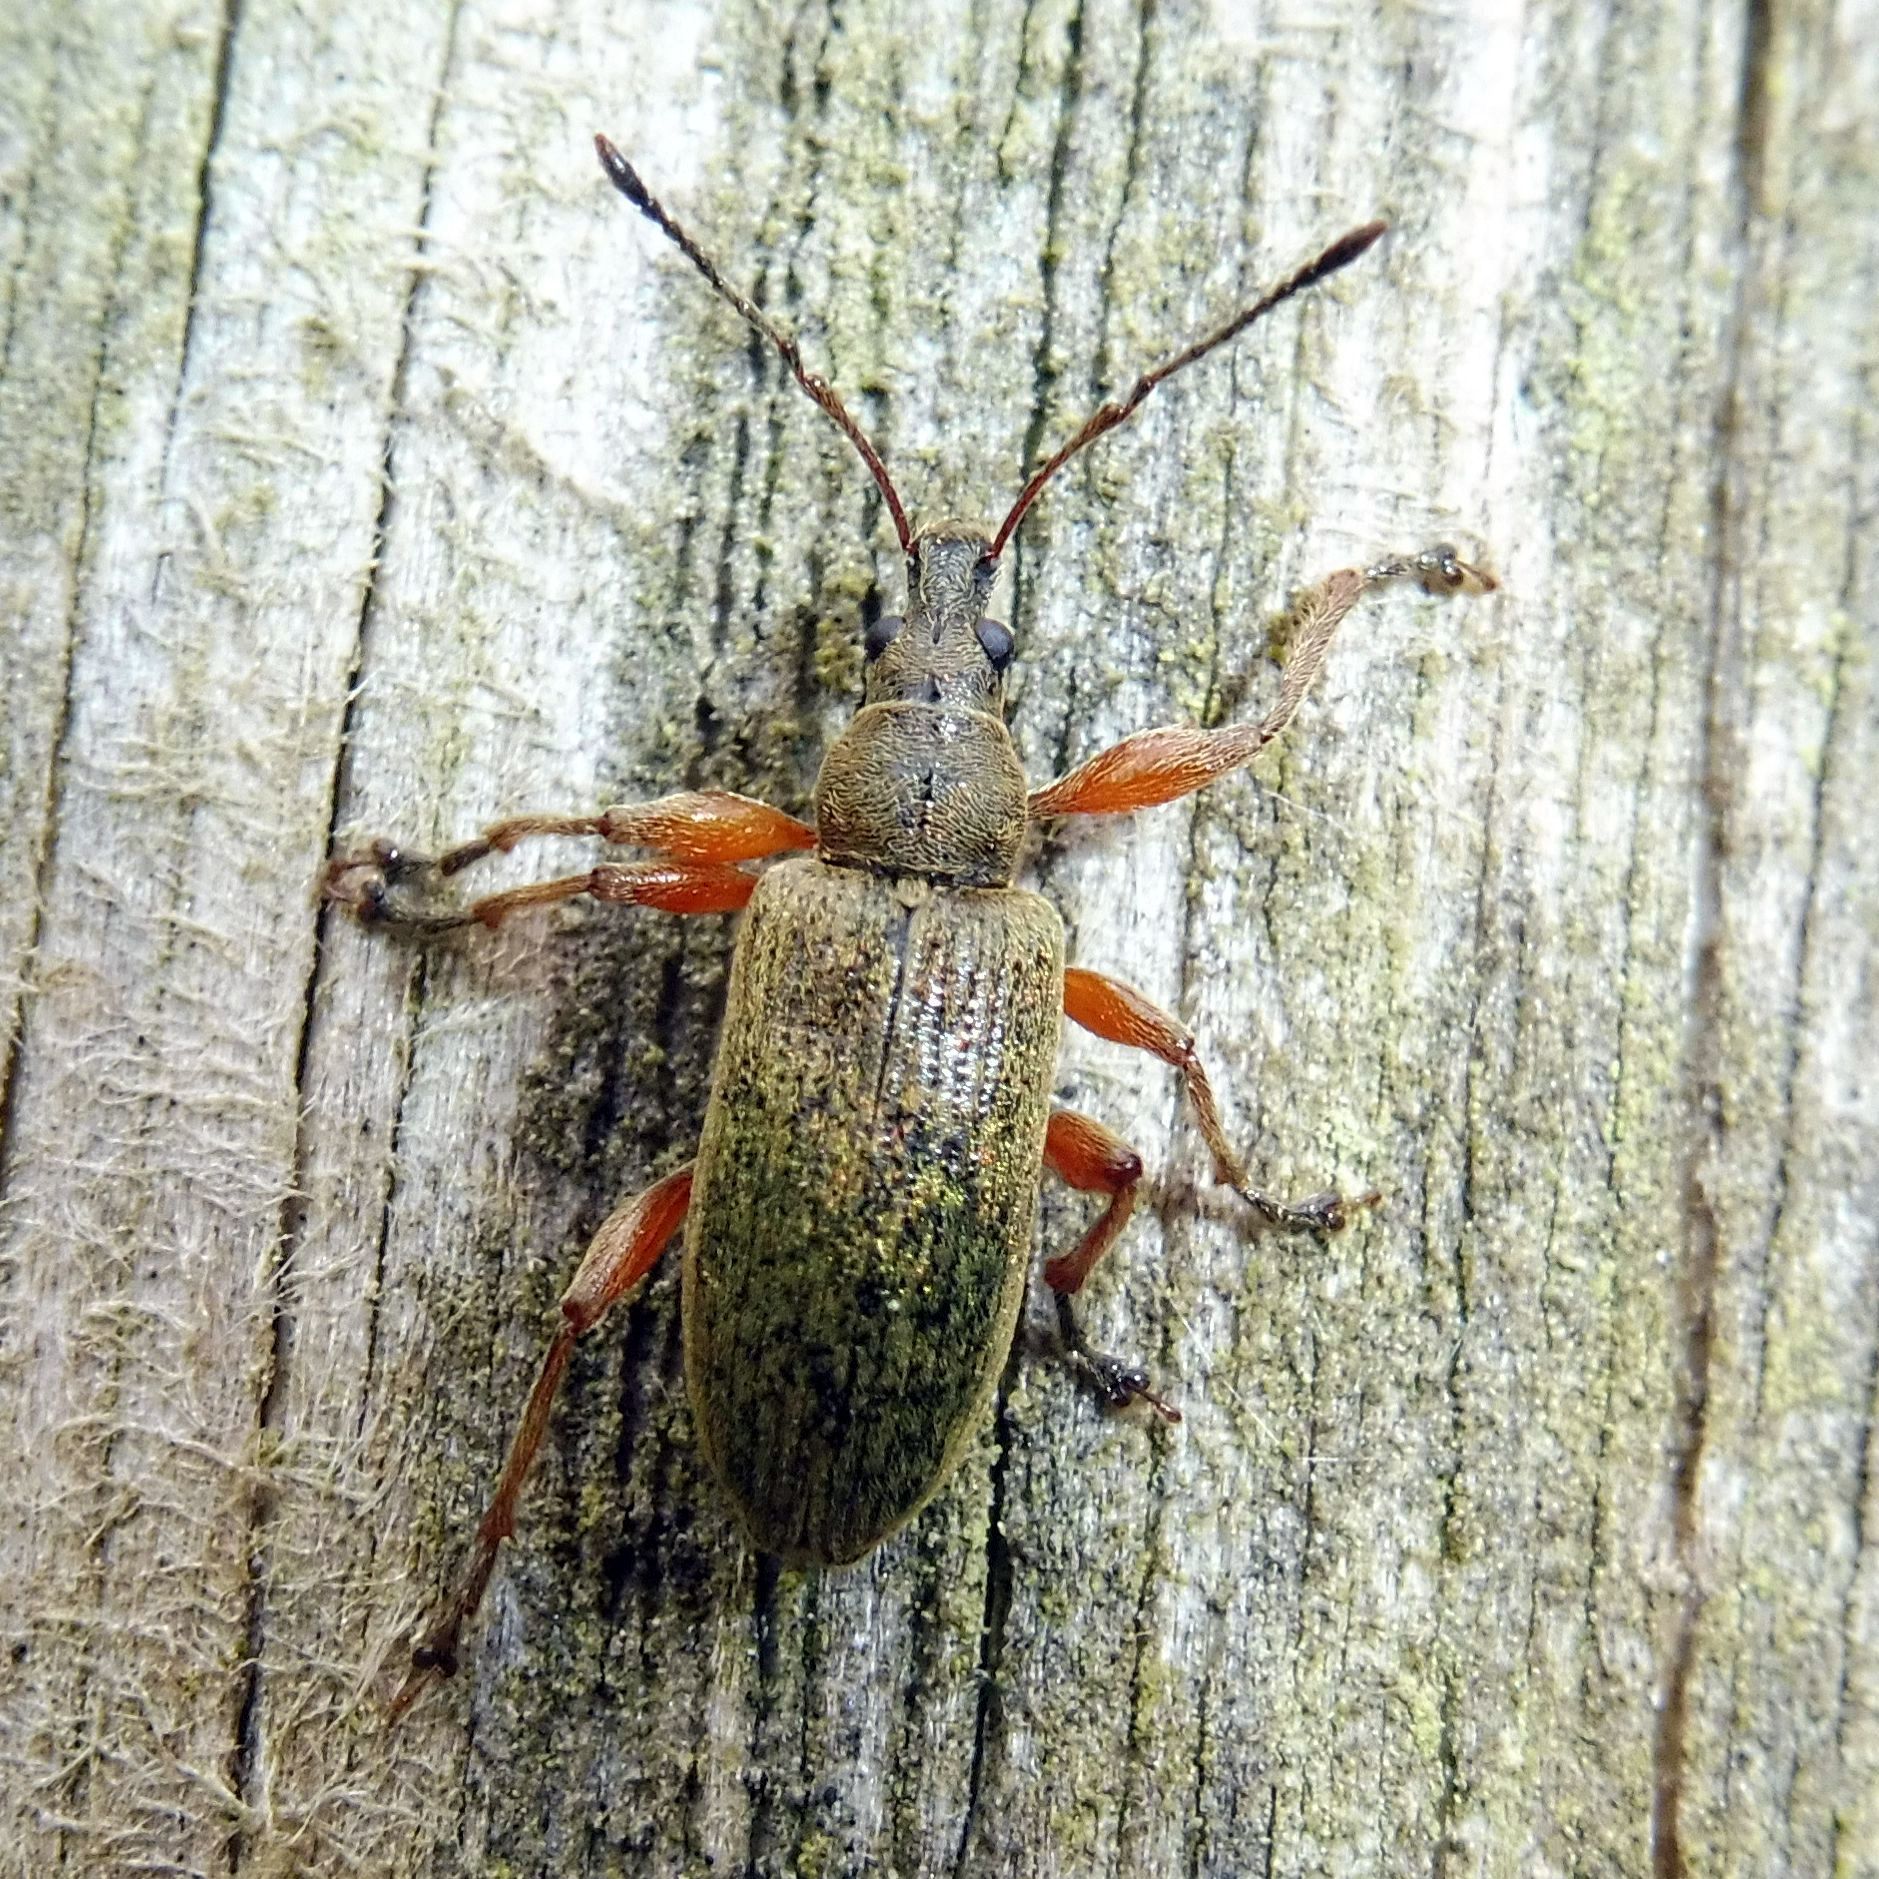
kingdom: Animalia
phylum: Arthropoda
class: Insecta
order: Coleoptera
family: Curculionidae
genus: Phyllobius
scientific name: Phyllobius glaucus
